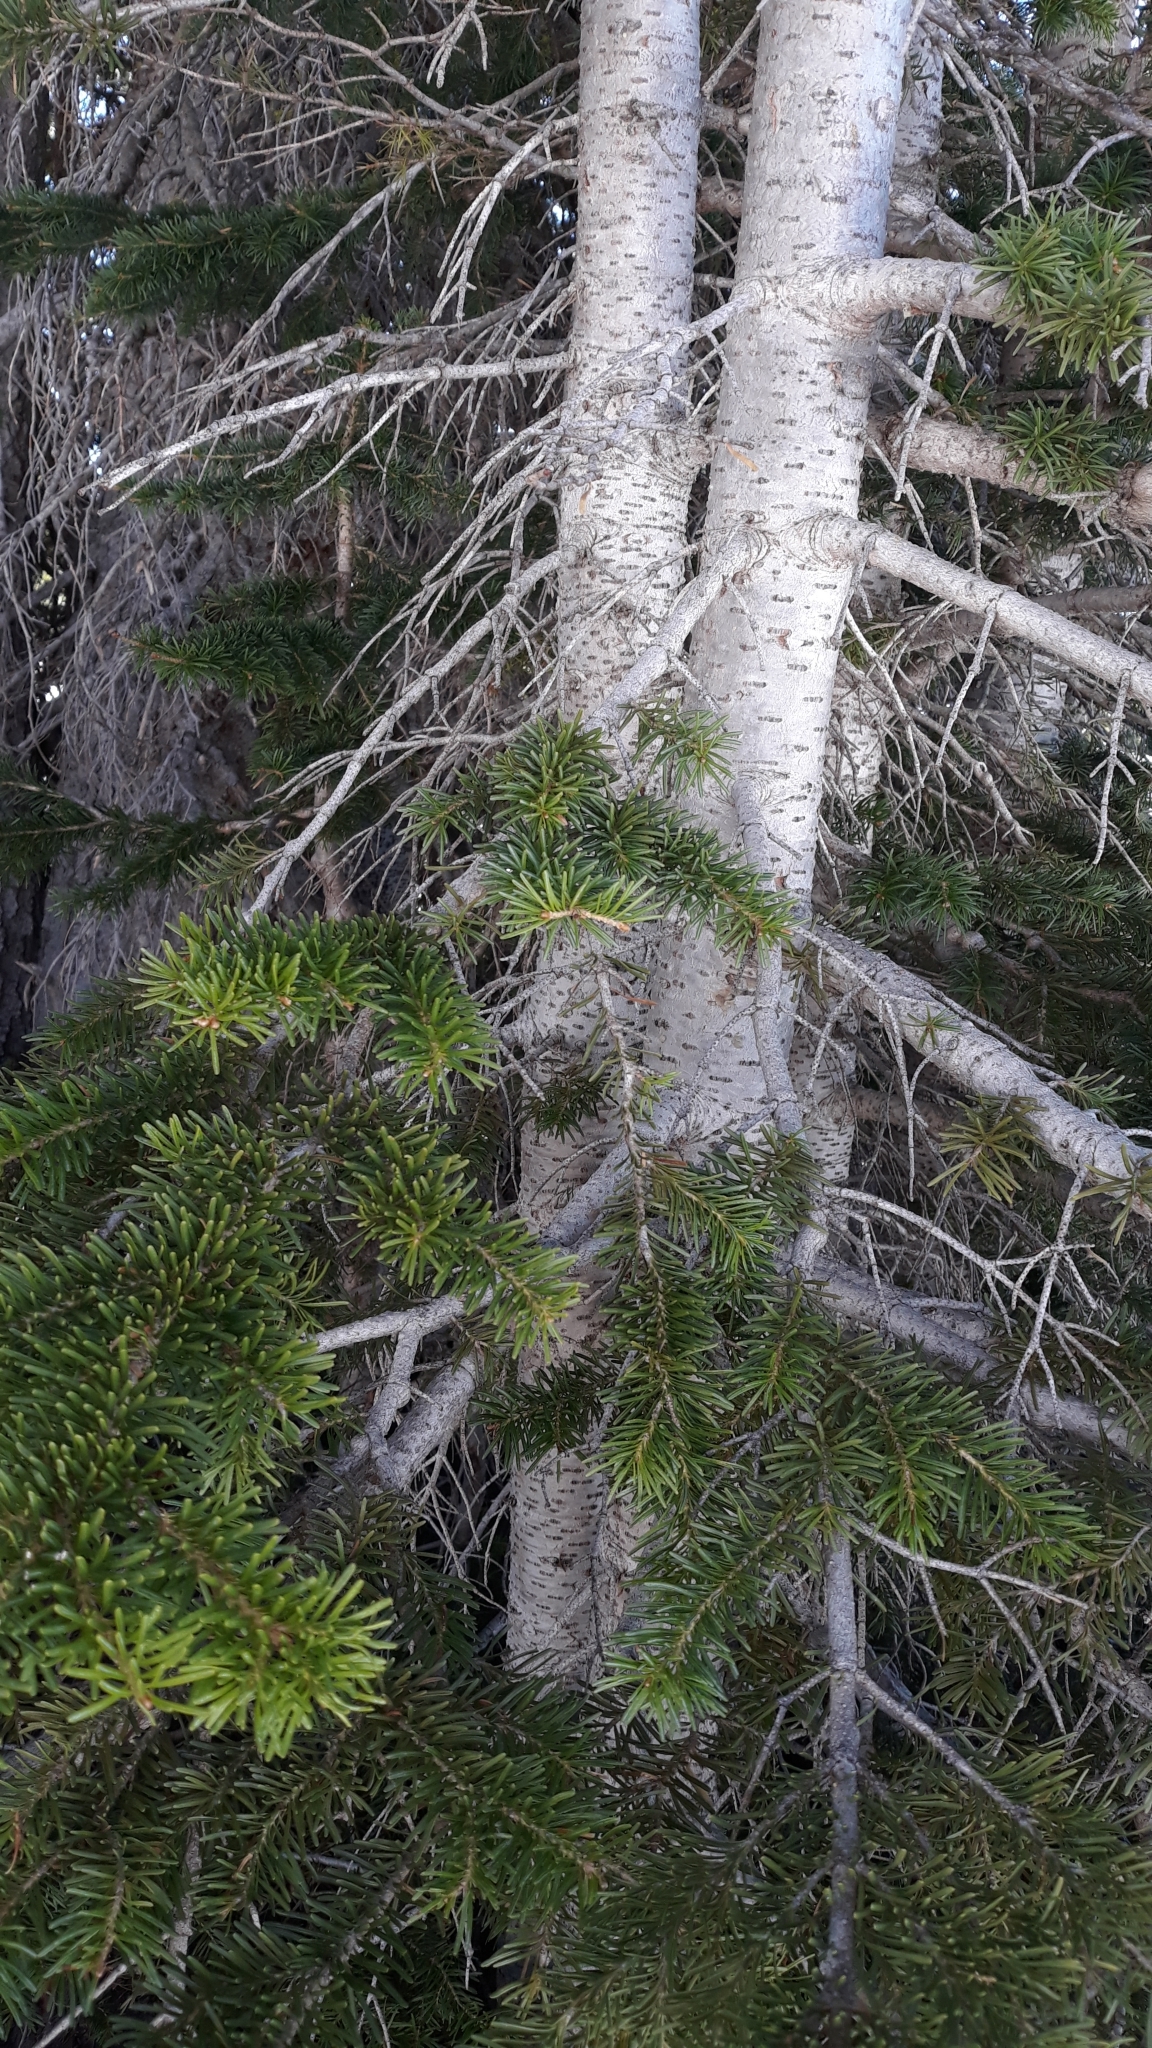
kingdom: Plantae
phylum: Tracheophyta
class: Pinopsida
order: Pinales
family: Pinaceae
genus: Abies
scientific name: Abies lasiocarpa
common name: Subalpine fir
